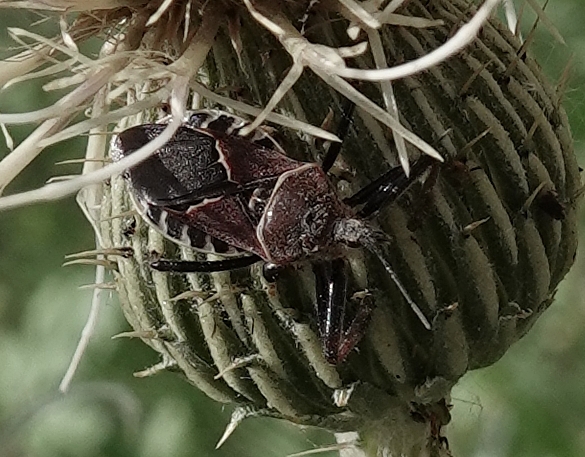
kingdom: Animalia
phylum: Arthropoda
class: Insecta
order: Hemiptera
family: Reduviidae
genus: Apiomerus
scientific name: Apiomerus spissipes
